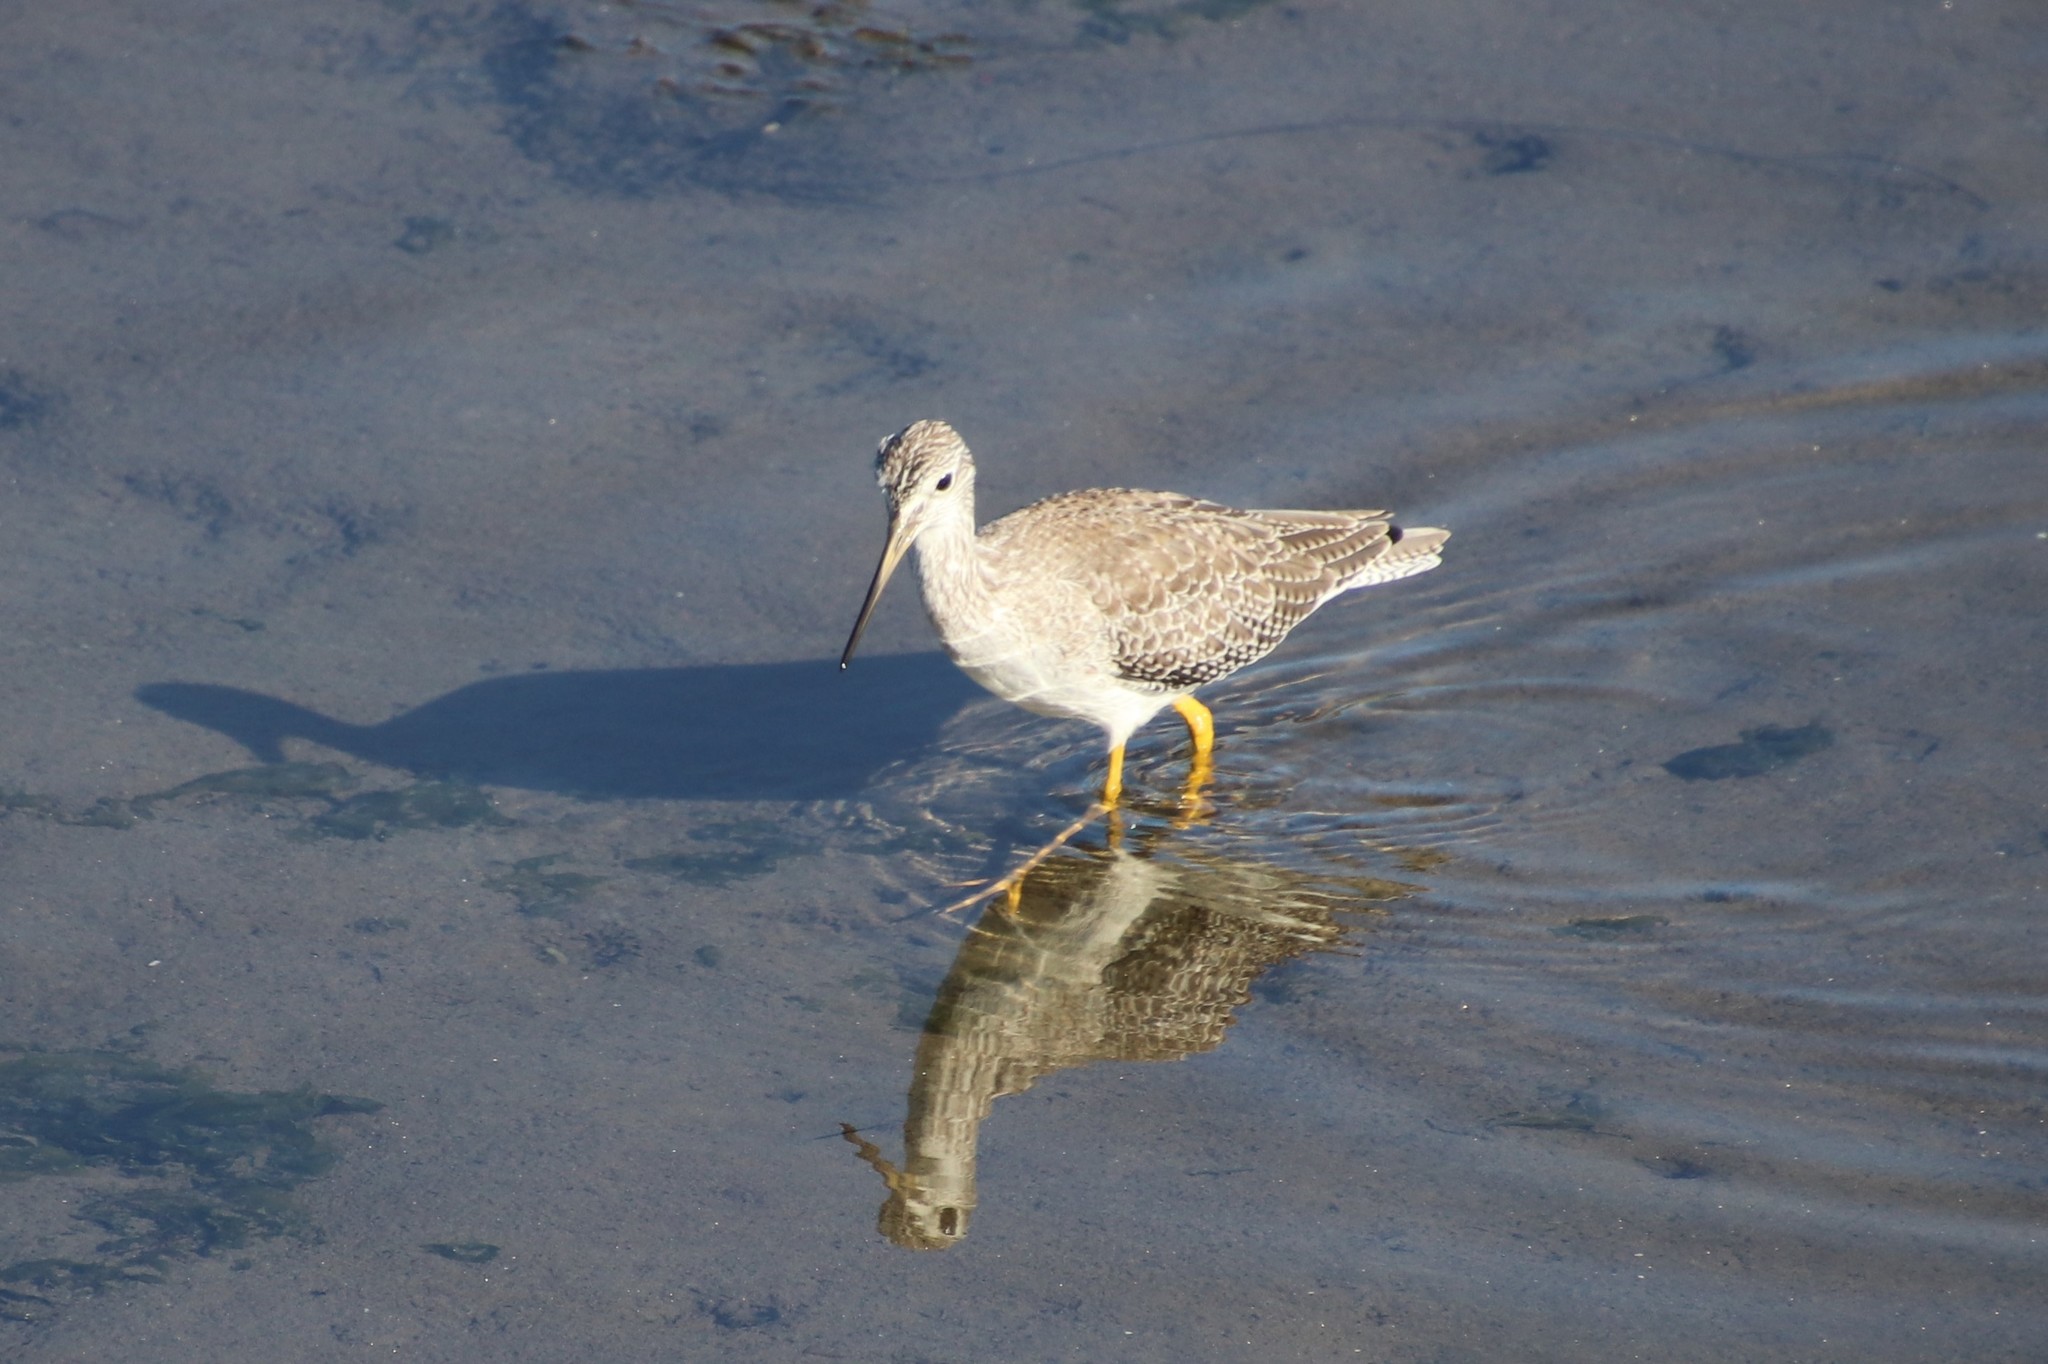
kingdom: Animalia
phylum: Chordata
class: Aves
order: Charadriiformes
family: Scolopacidae
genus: Tringa
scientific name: Tringa melanoleuca
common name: Greater yellowlegs
